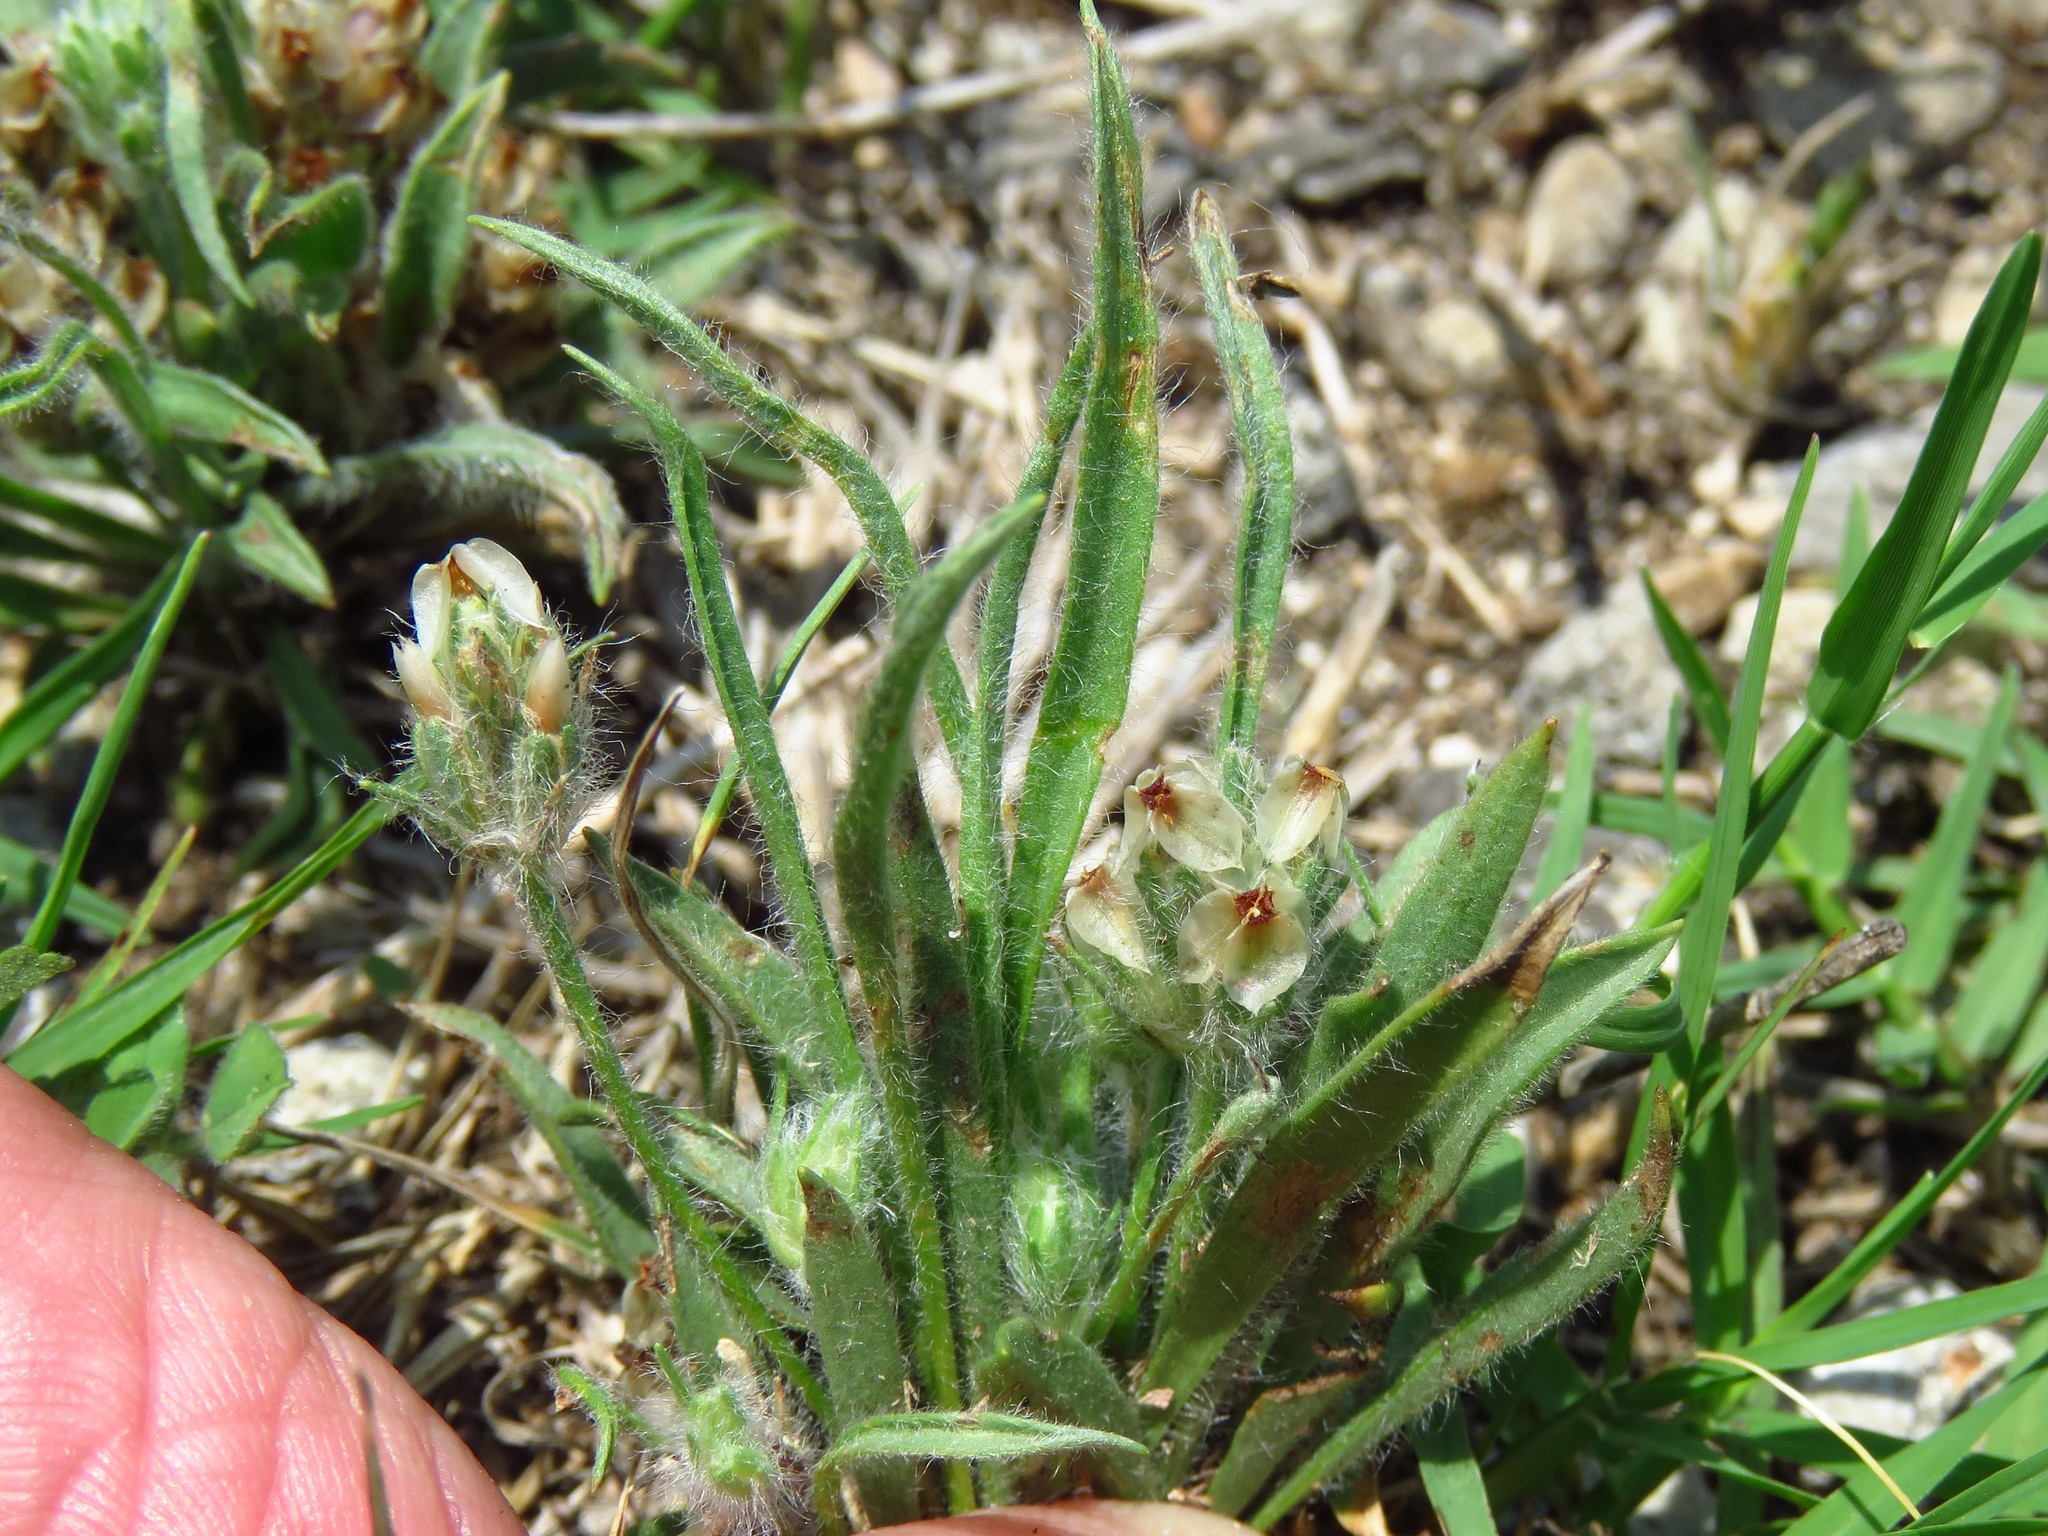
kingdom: Plantae
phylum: Tracheophyta
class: Magnoliopsida
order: Lamiales
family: Plantaginaceae
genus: Plantago
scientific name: Plantago helleri
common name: Heller's plantain
